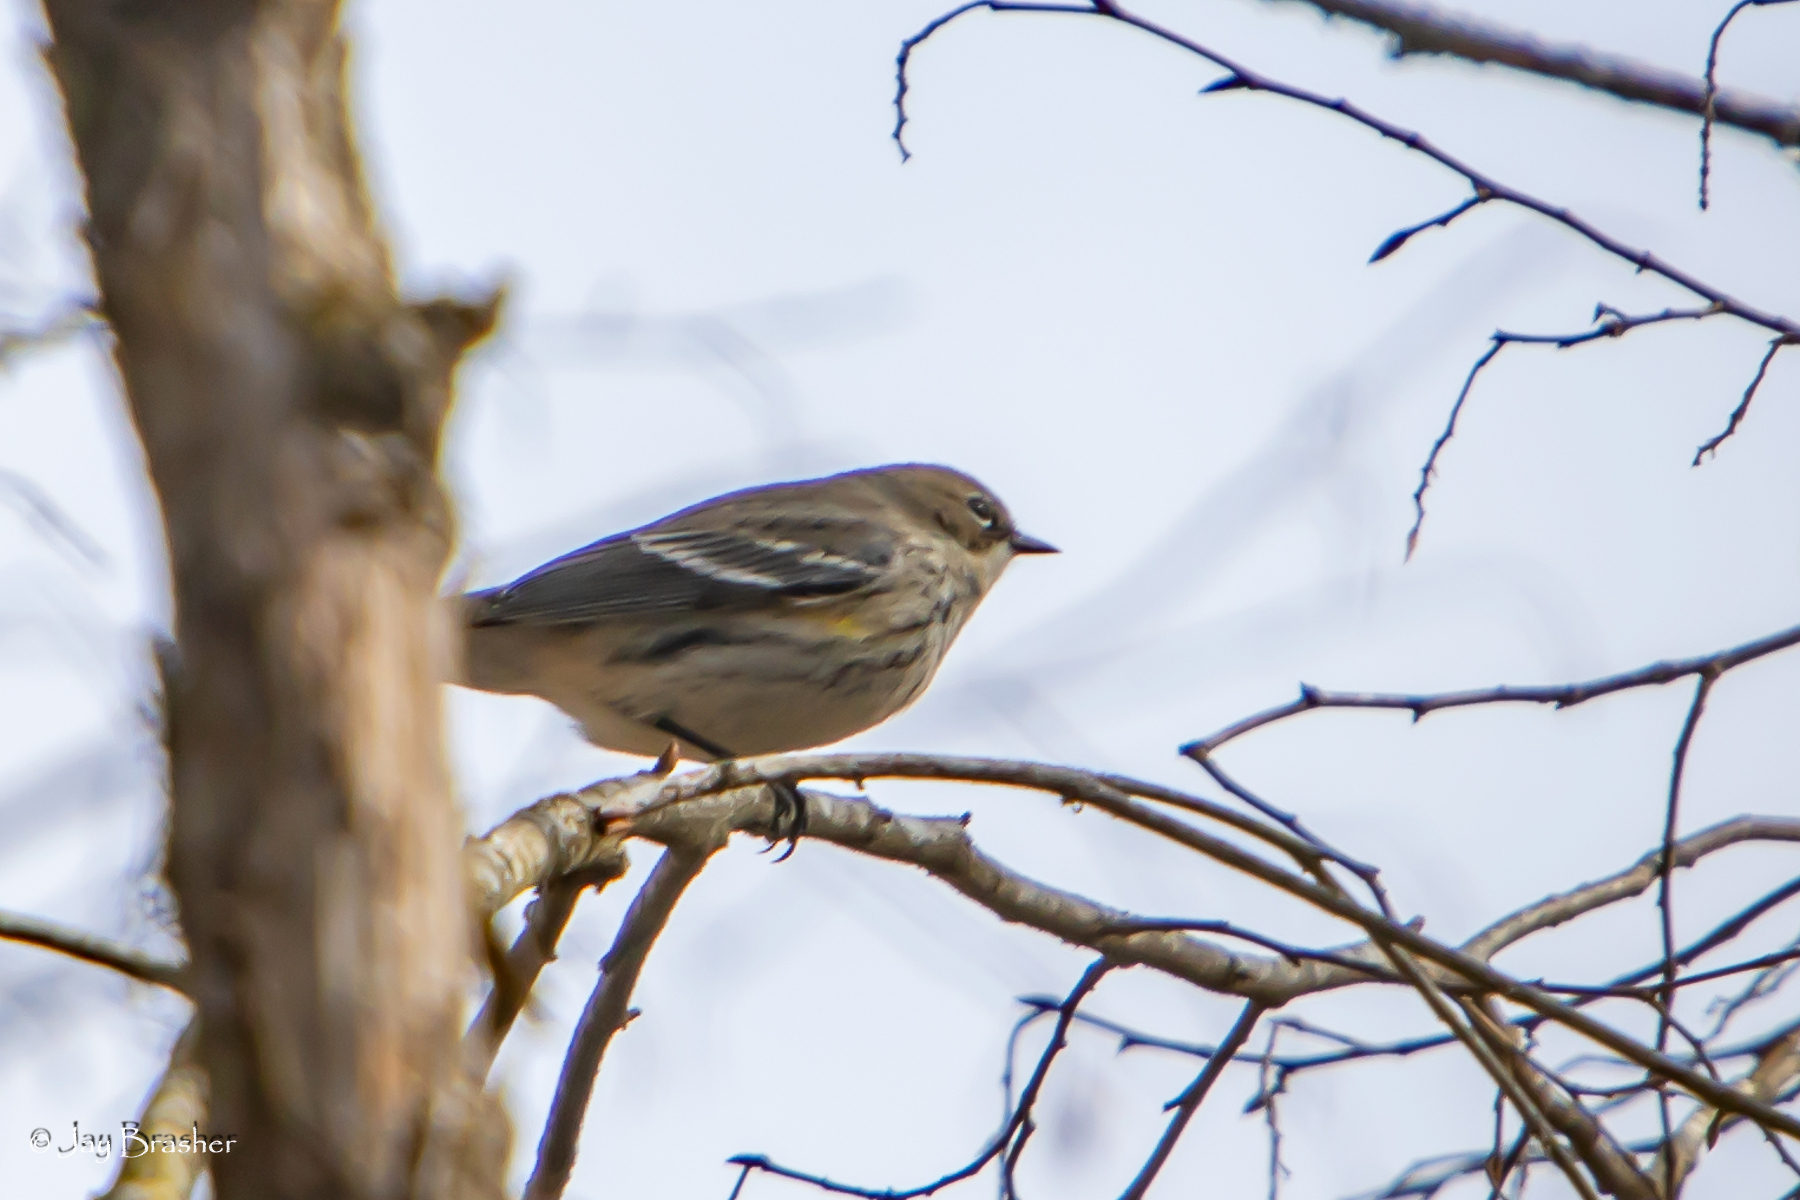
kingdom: Animalia
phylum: Chordata
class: Aves
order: Passeriformes
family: Parulidae
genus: Setophaga
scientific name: Setophaga coronata
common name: Myrtle warbler
